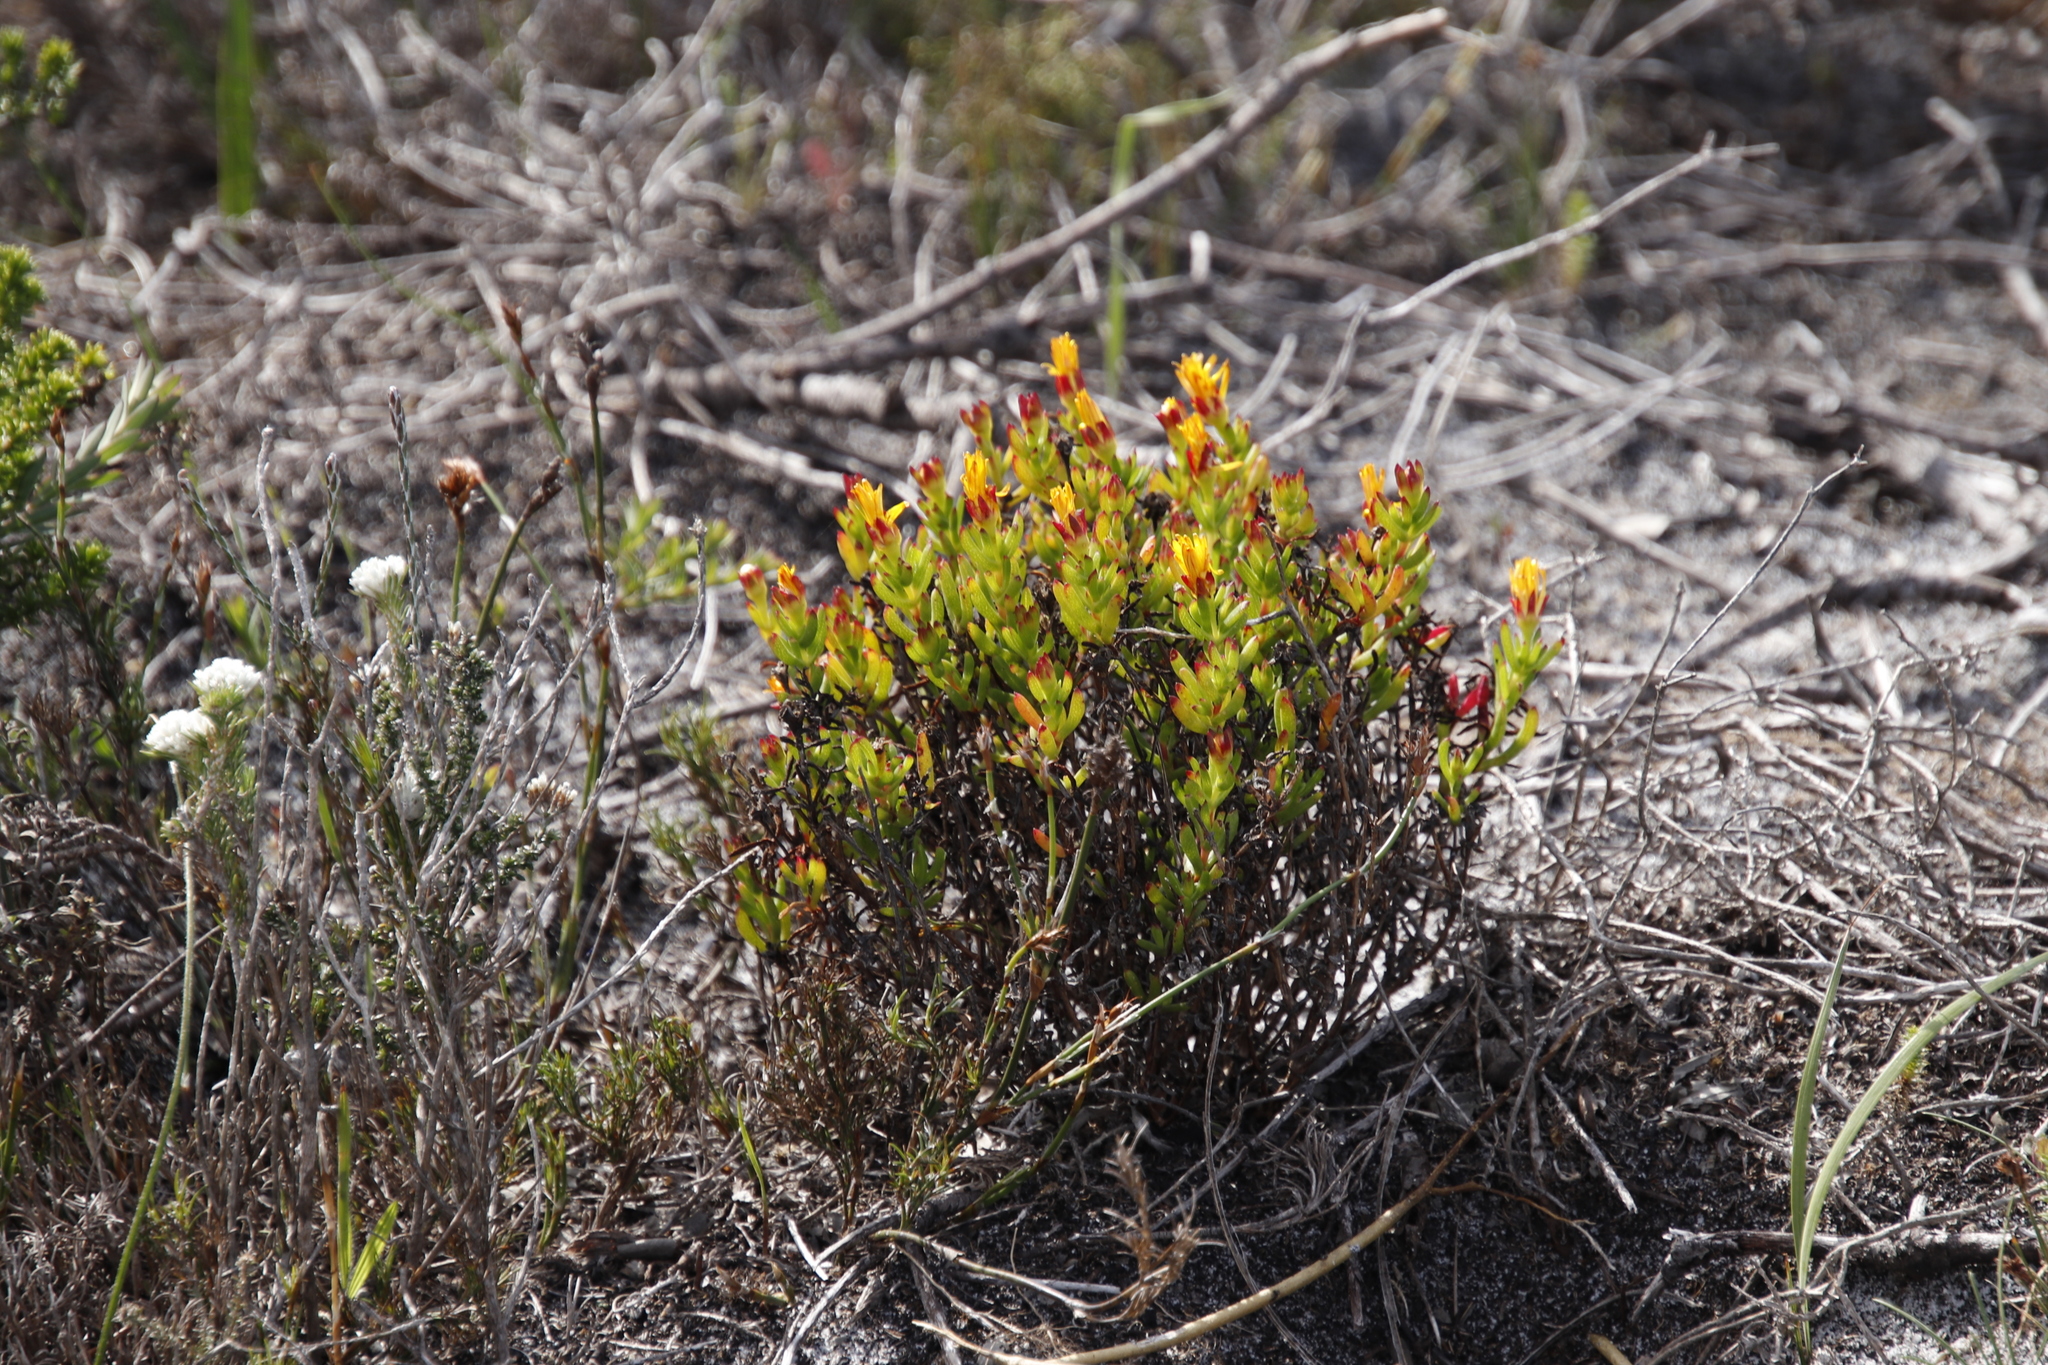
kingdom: Plantae
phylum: Tracheophyta
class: Magnoliopsida
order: Caryophyllales
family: Aizoaceae
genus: Lampranthus
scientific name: Lampranthus promontorii
